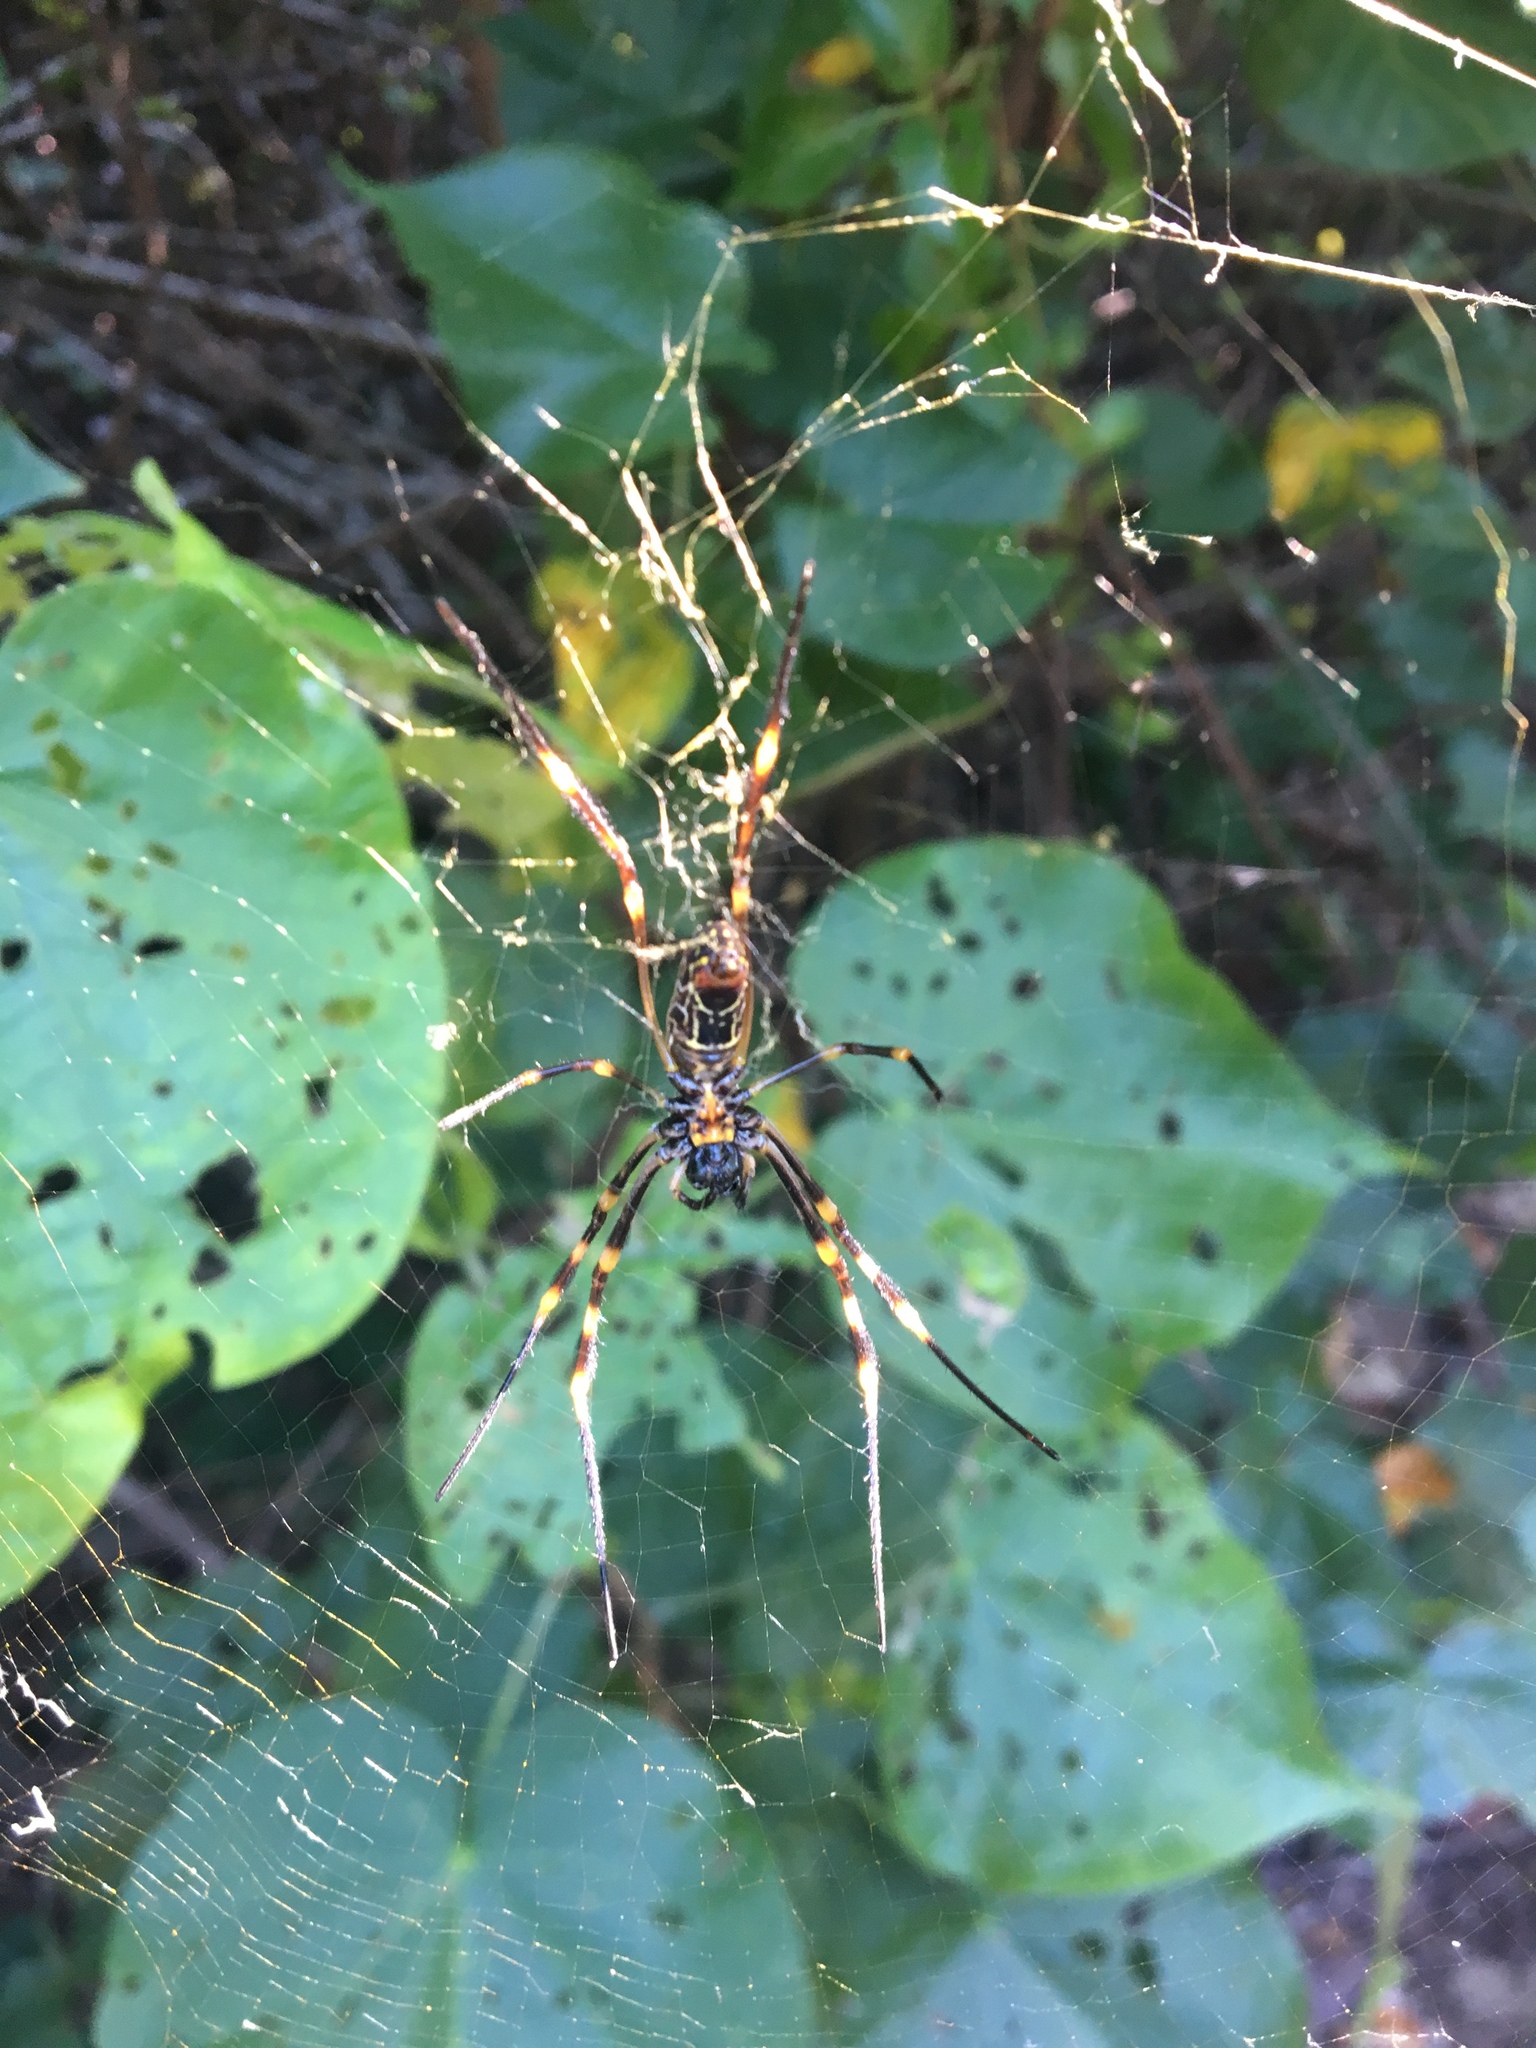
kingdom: Animalia
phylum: Arthropoda
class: Arachnida
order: Araneae
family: Araneidae
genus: Trichonephila
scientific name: Trichonephila plumipes
